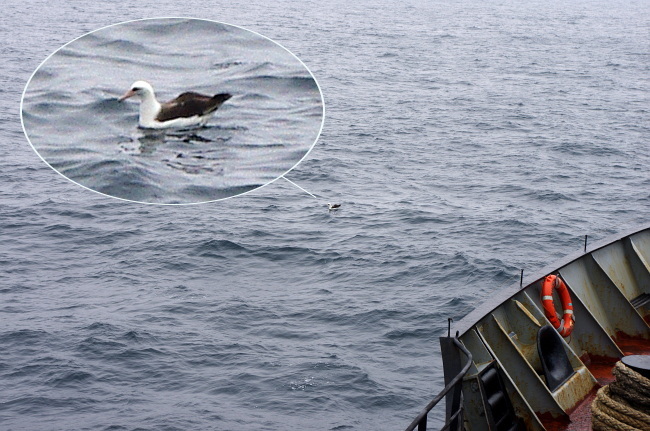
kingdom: Animalia
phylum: Chordata
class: Aves
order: Procellariiformes
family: Diomedeidae
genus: Phoebastria
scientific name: Phoebastria immutabilis
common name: Laysan albatross
